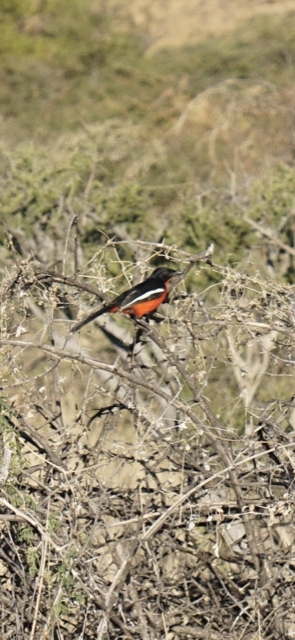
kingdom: Animalia
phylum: Chordata
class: Aves
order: Passeriformes
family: Malaconotidae
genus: Laniarius
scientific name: Laniarius atrococcineus
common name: Crimson-breasted shrike
